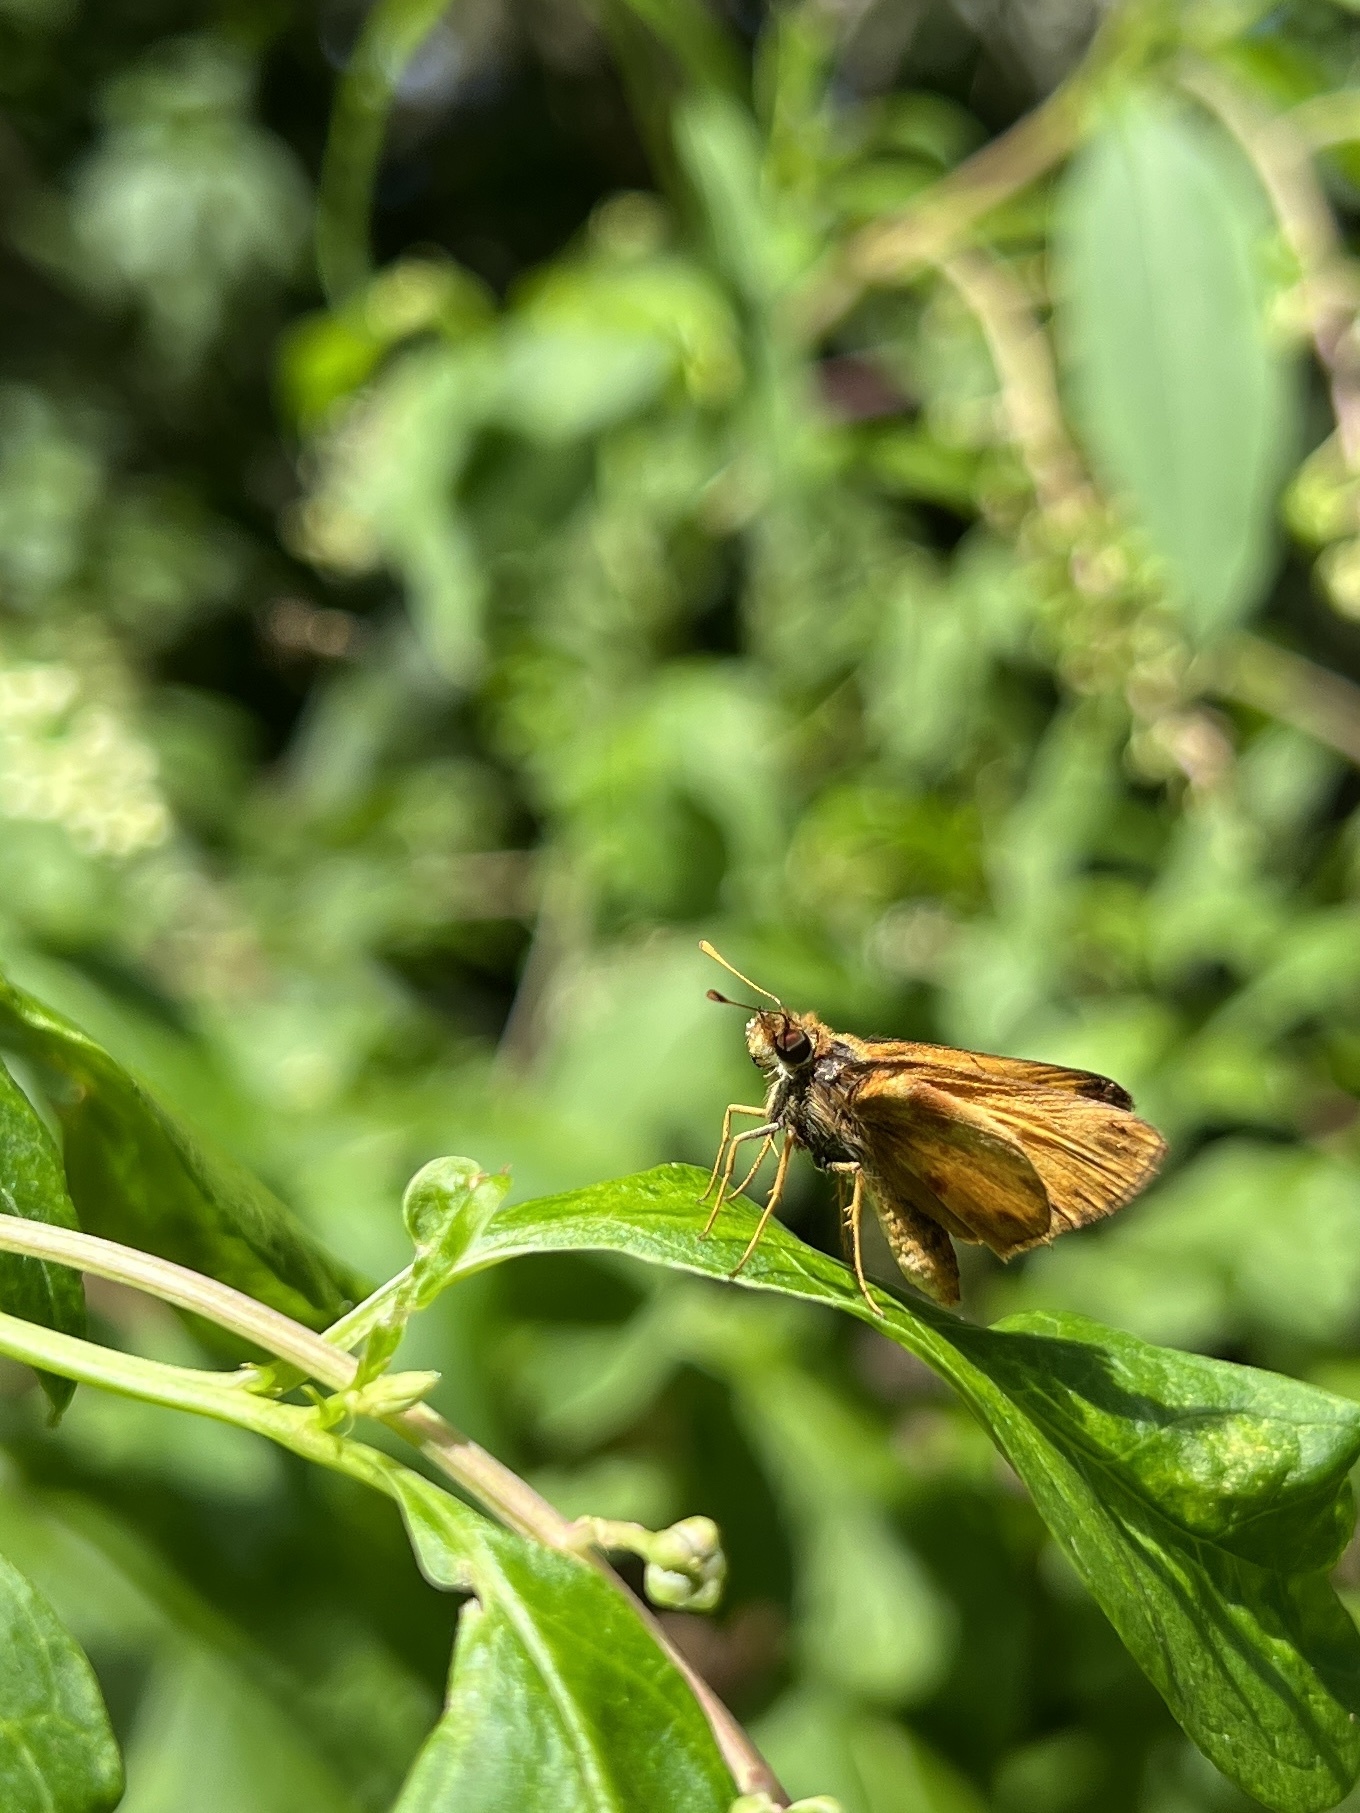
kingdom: Animalia
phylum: Arthropoda
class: Insecta
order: Lepidoptera
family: Hesperiidae
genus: Lon
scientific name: Lon zabulon
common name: Zabulon skipper
